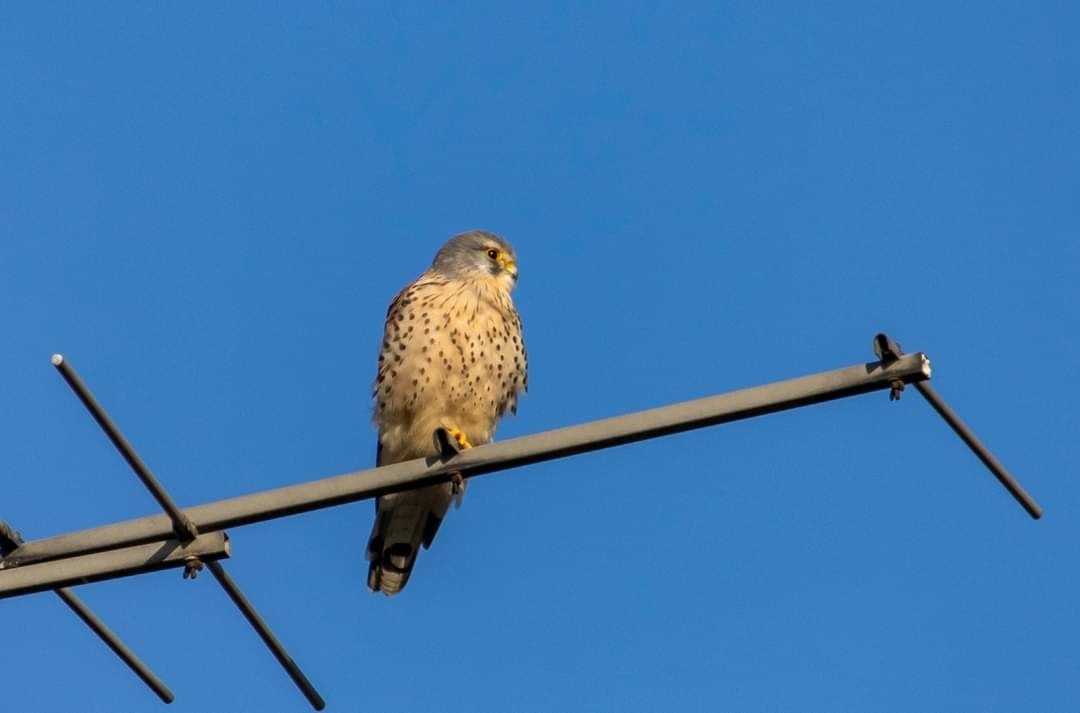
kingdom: Animalia
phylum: Chordata
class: Aves
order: Falconiformes
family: Falconidae
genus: Falco
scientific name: Falco tinnunculus
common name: Common kestrel
